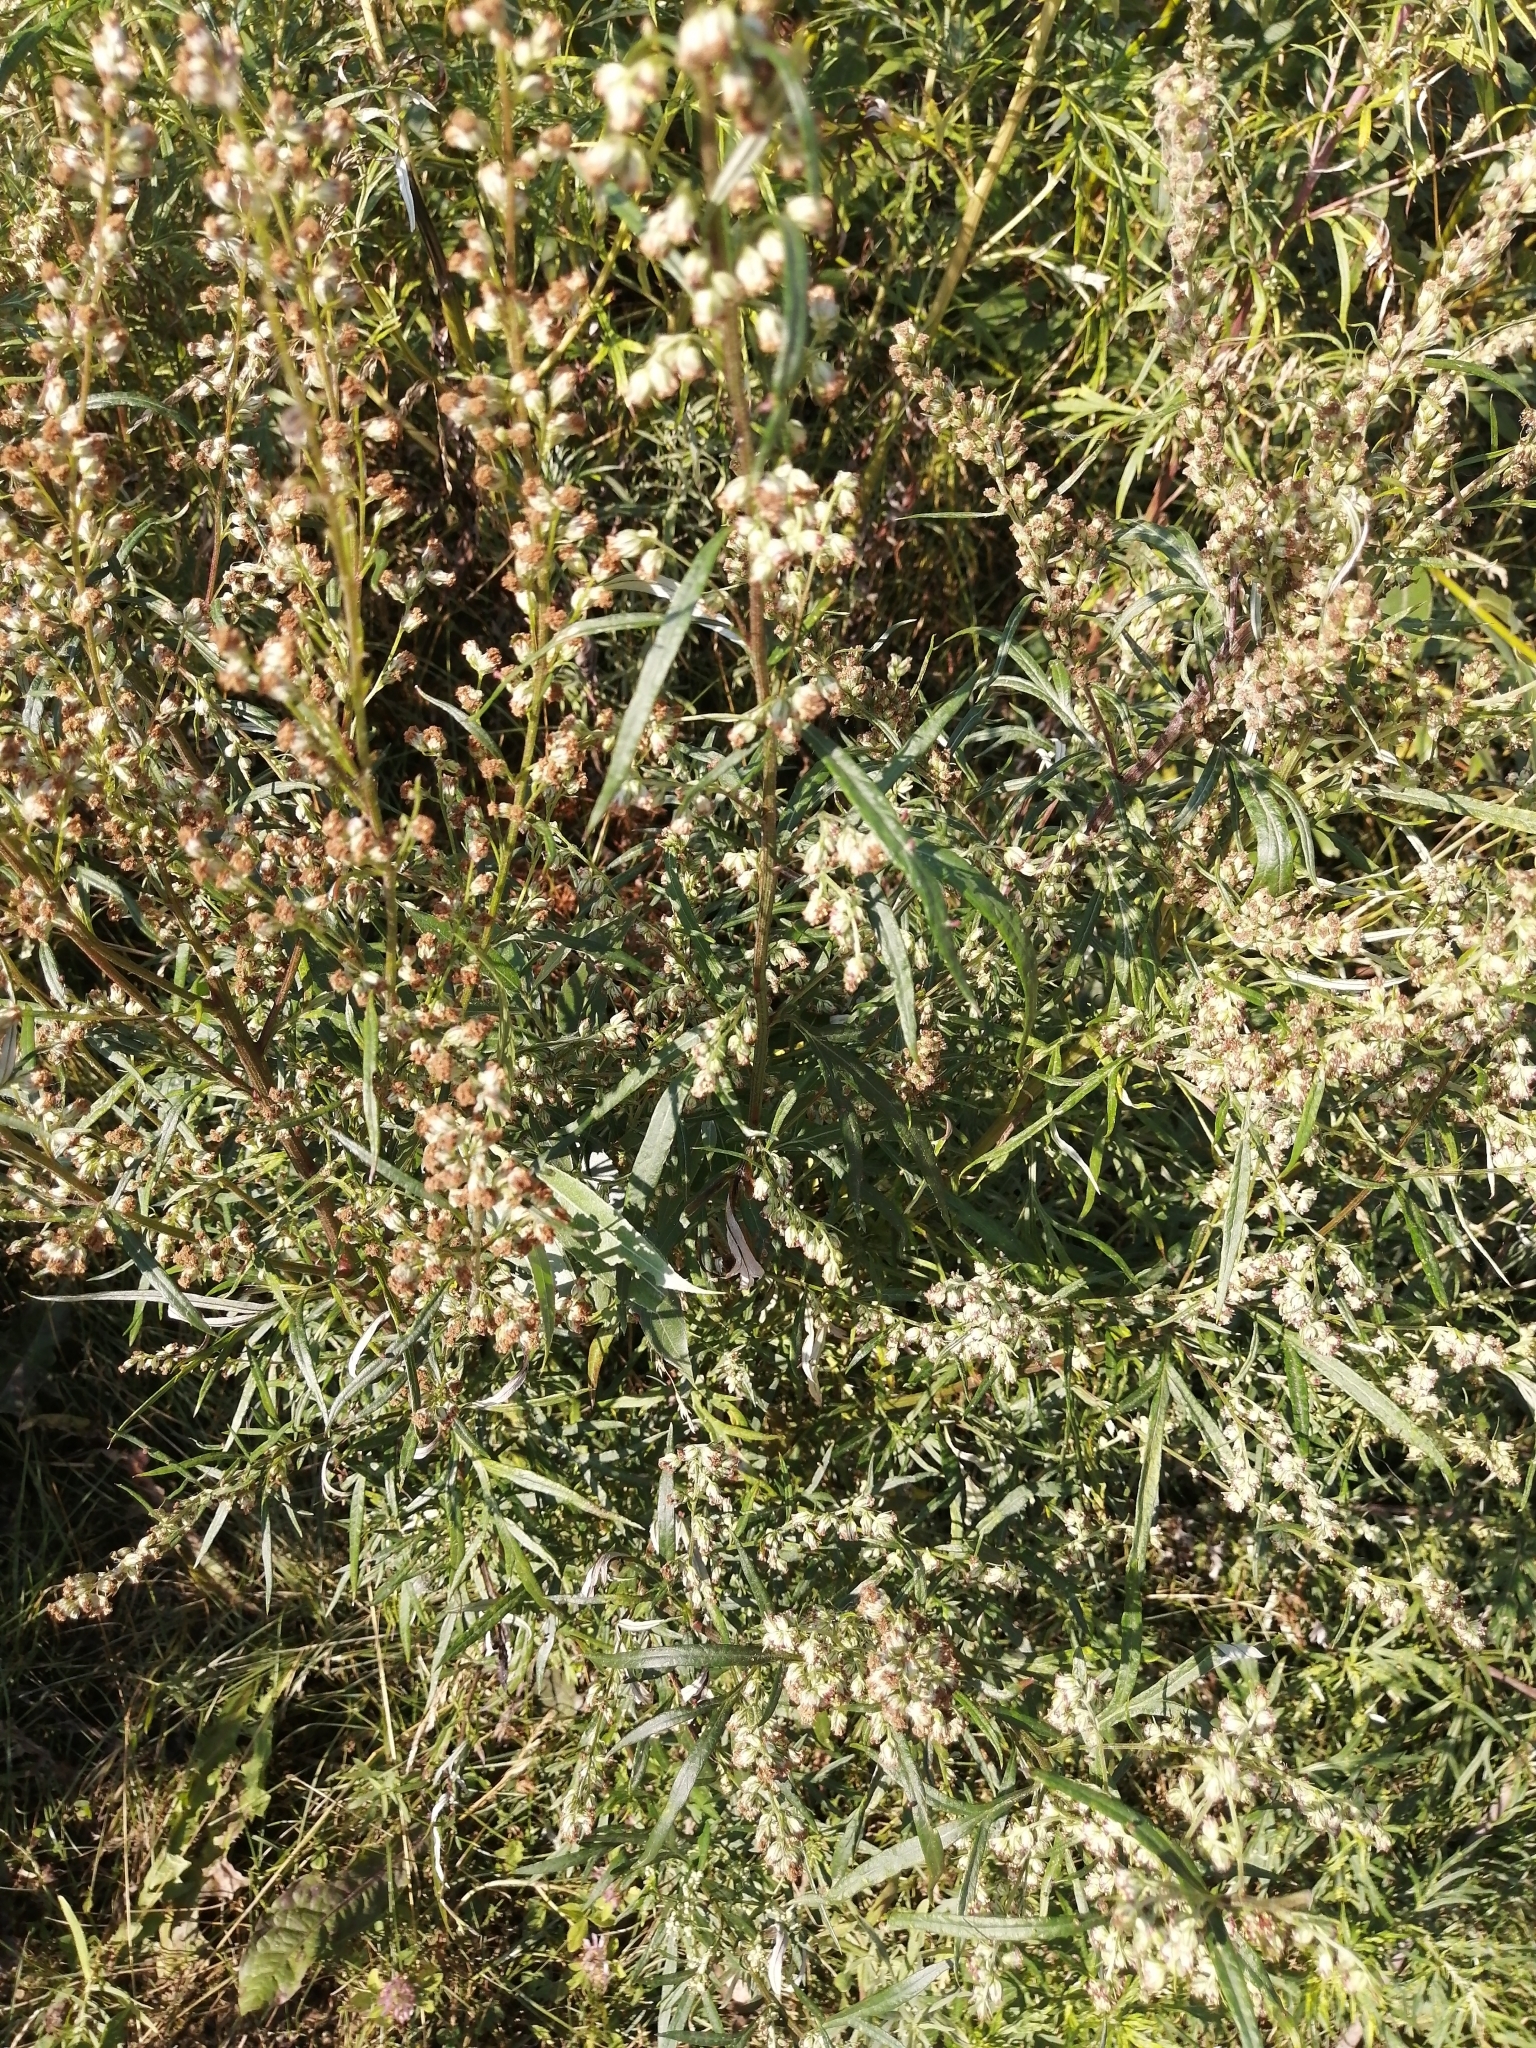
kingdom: Plantae
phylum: Tracheophyta
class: Magnoliopsida
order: Asterales
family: Asteraceae
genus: Artemisia
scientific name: Artemisia vulgaris
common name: Mugwort
